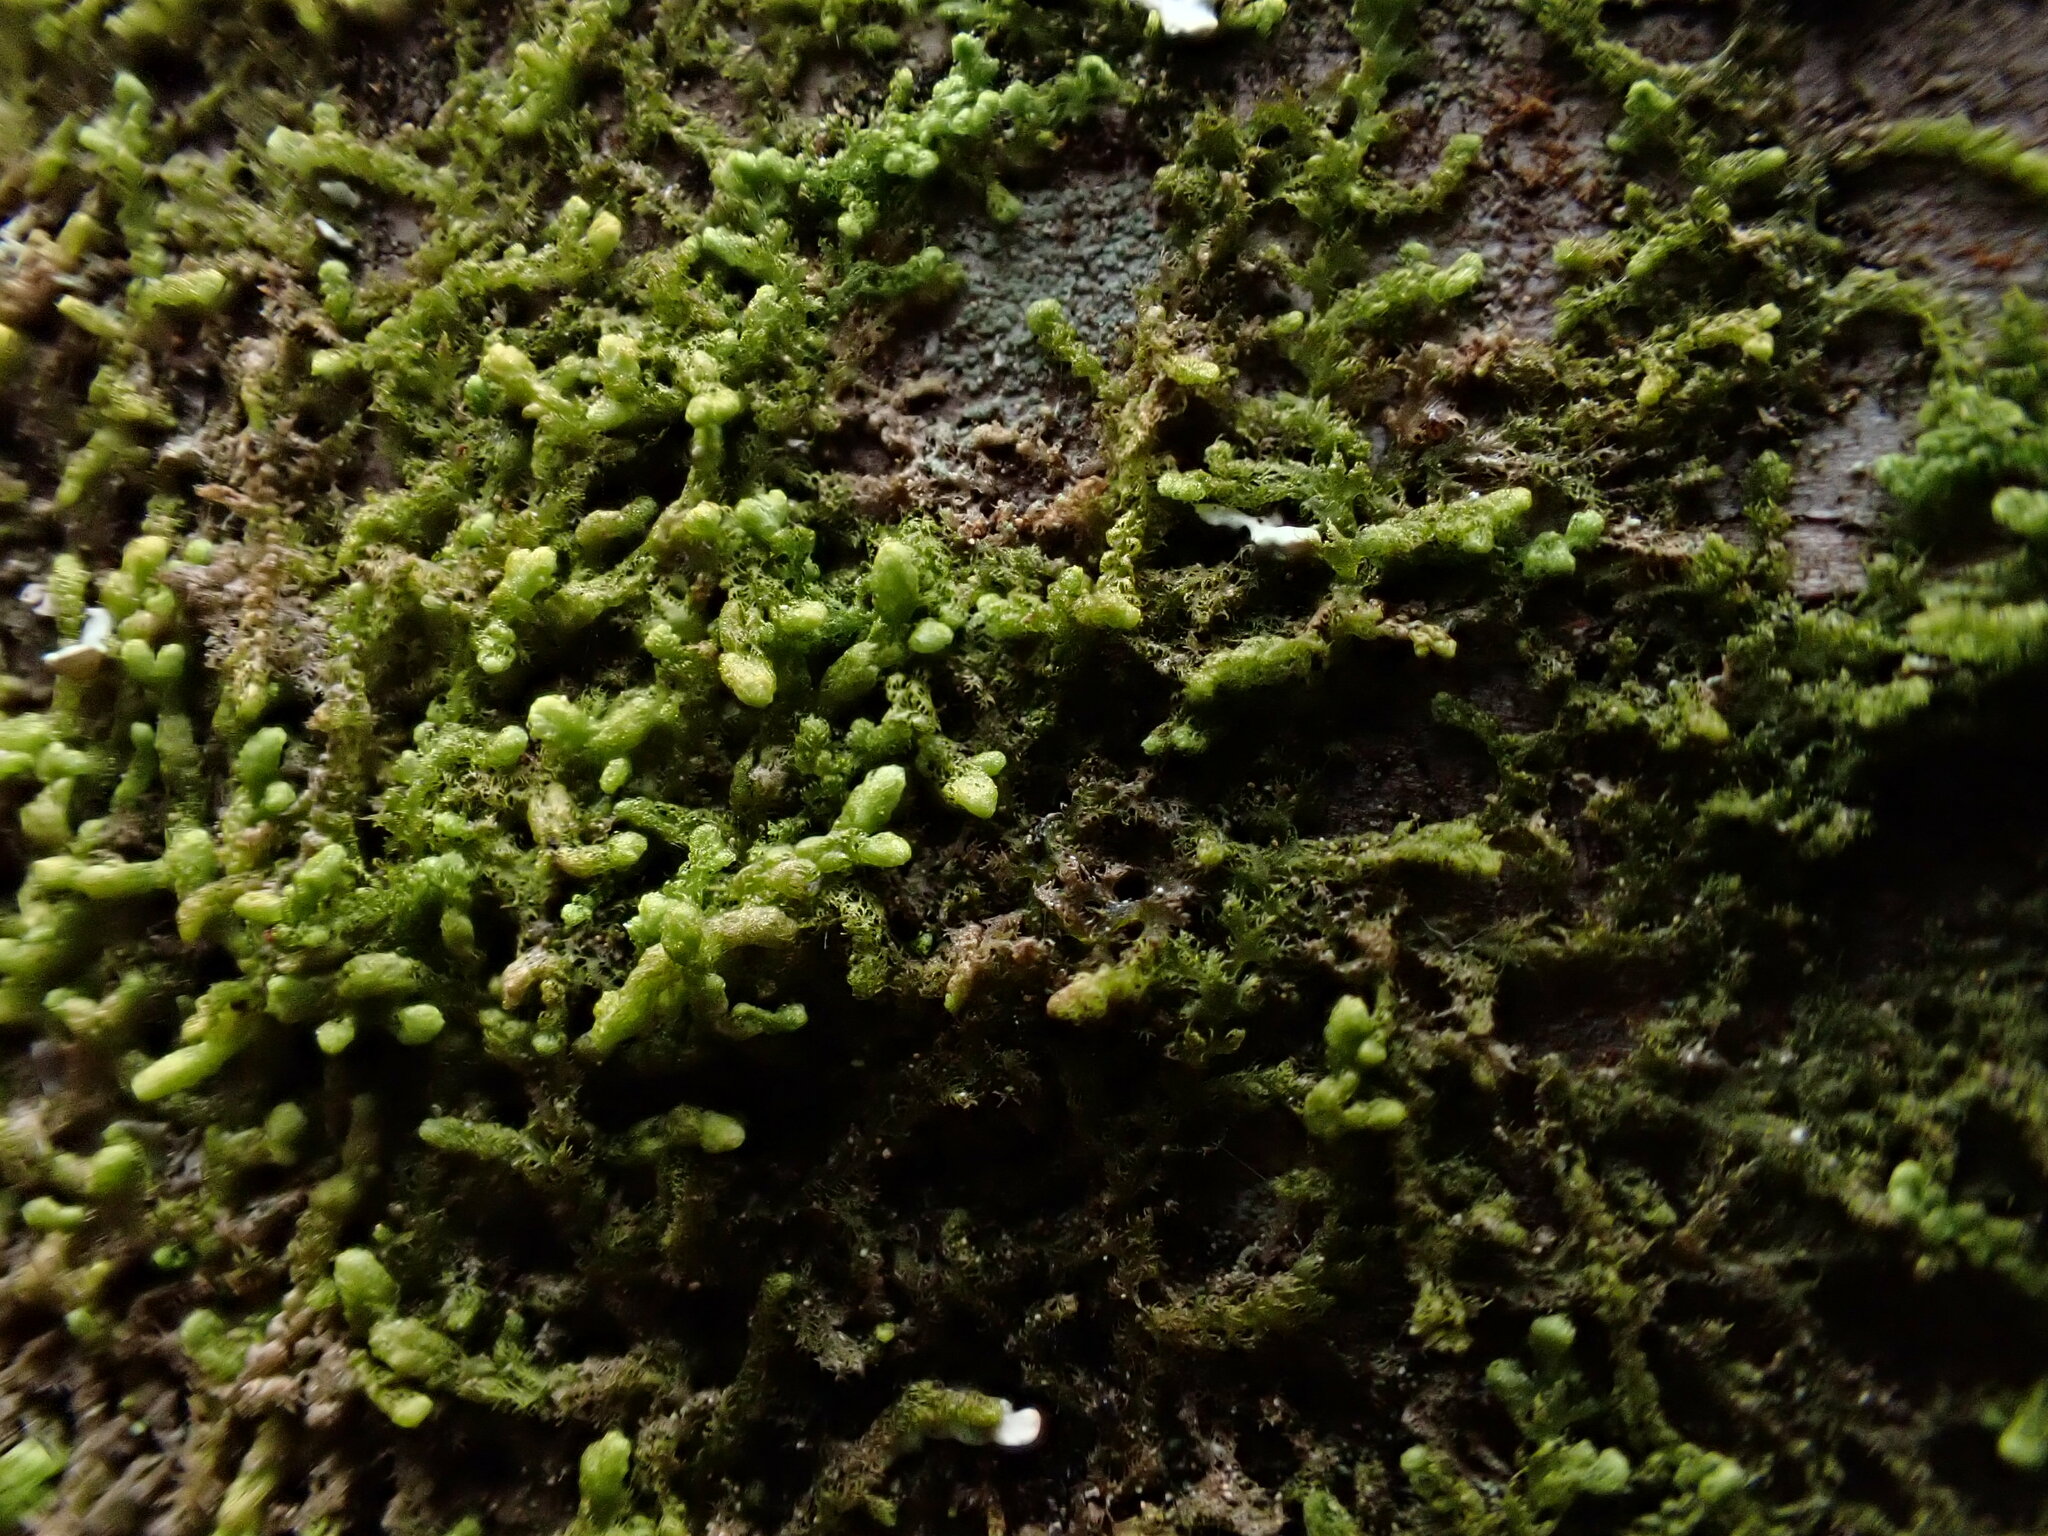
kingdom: Plantae
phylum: Marchantiophyta
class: Jungermanniopsida
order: Ptilidiales
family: Ptilidiaceae
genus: Ptilidium
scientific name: Ptilidium pulcherrimum
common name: Tree fringewort
